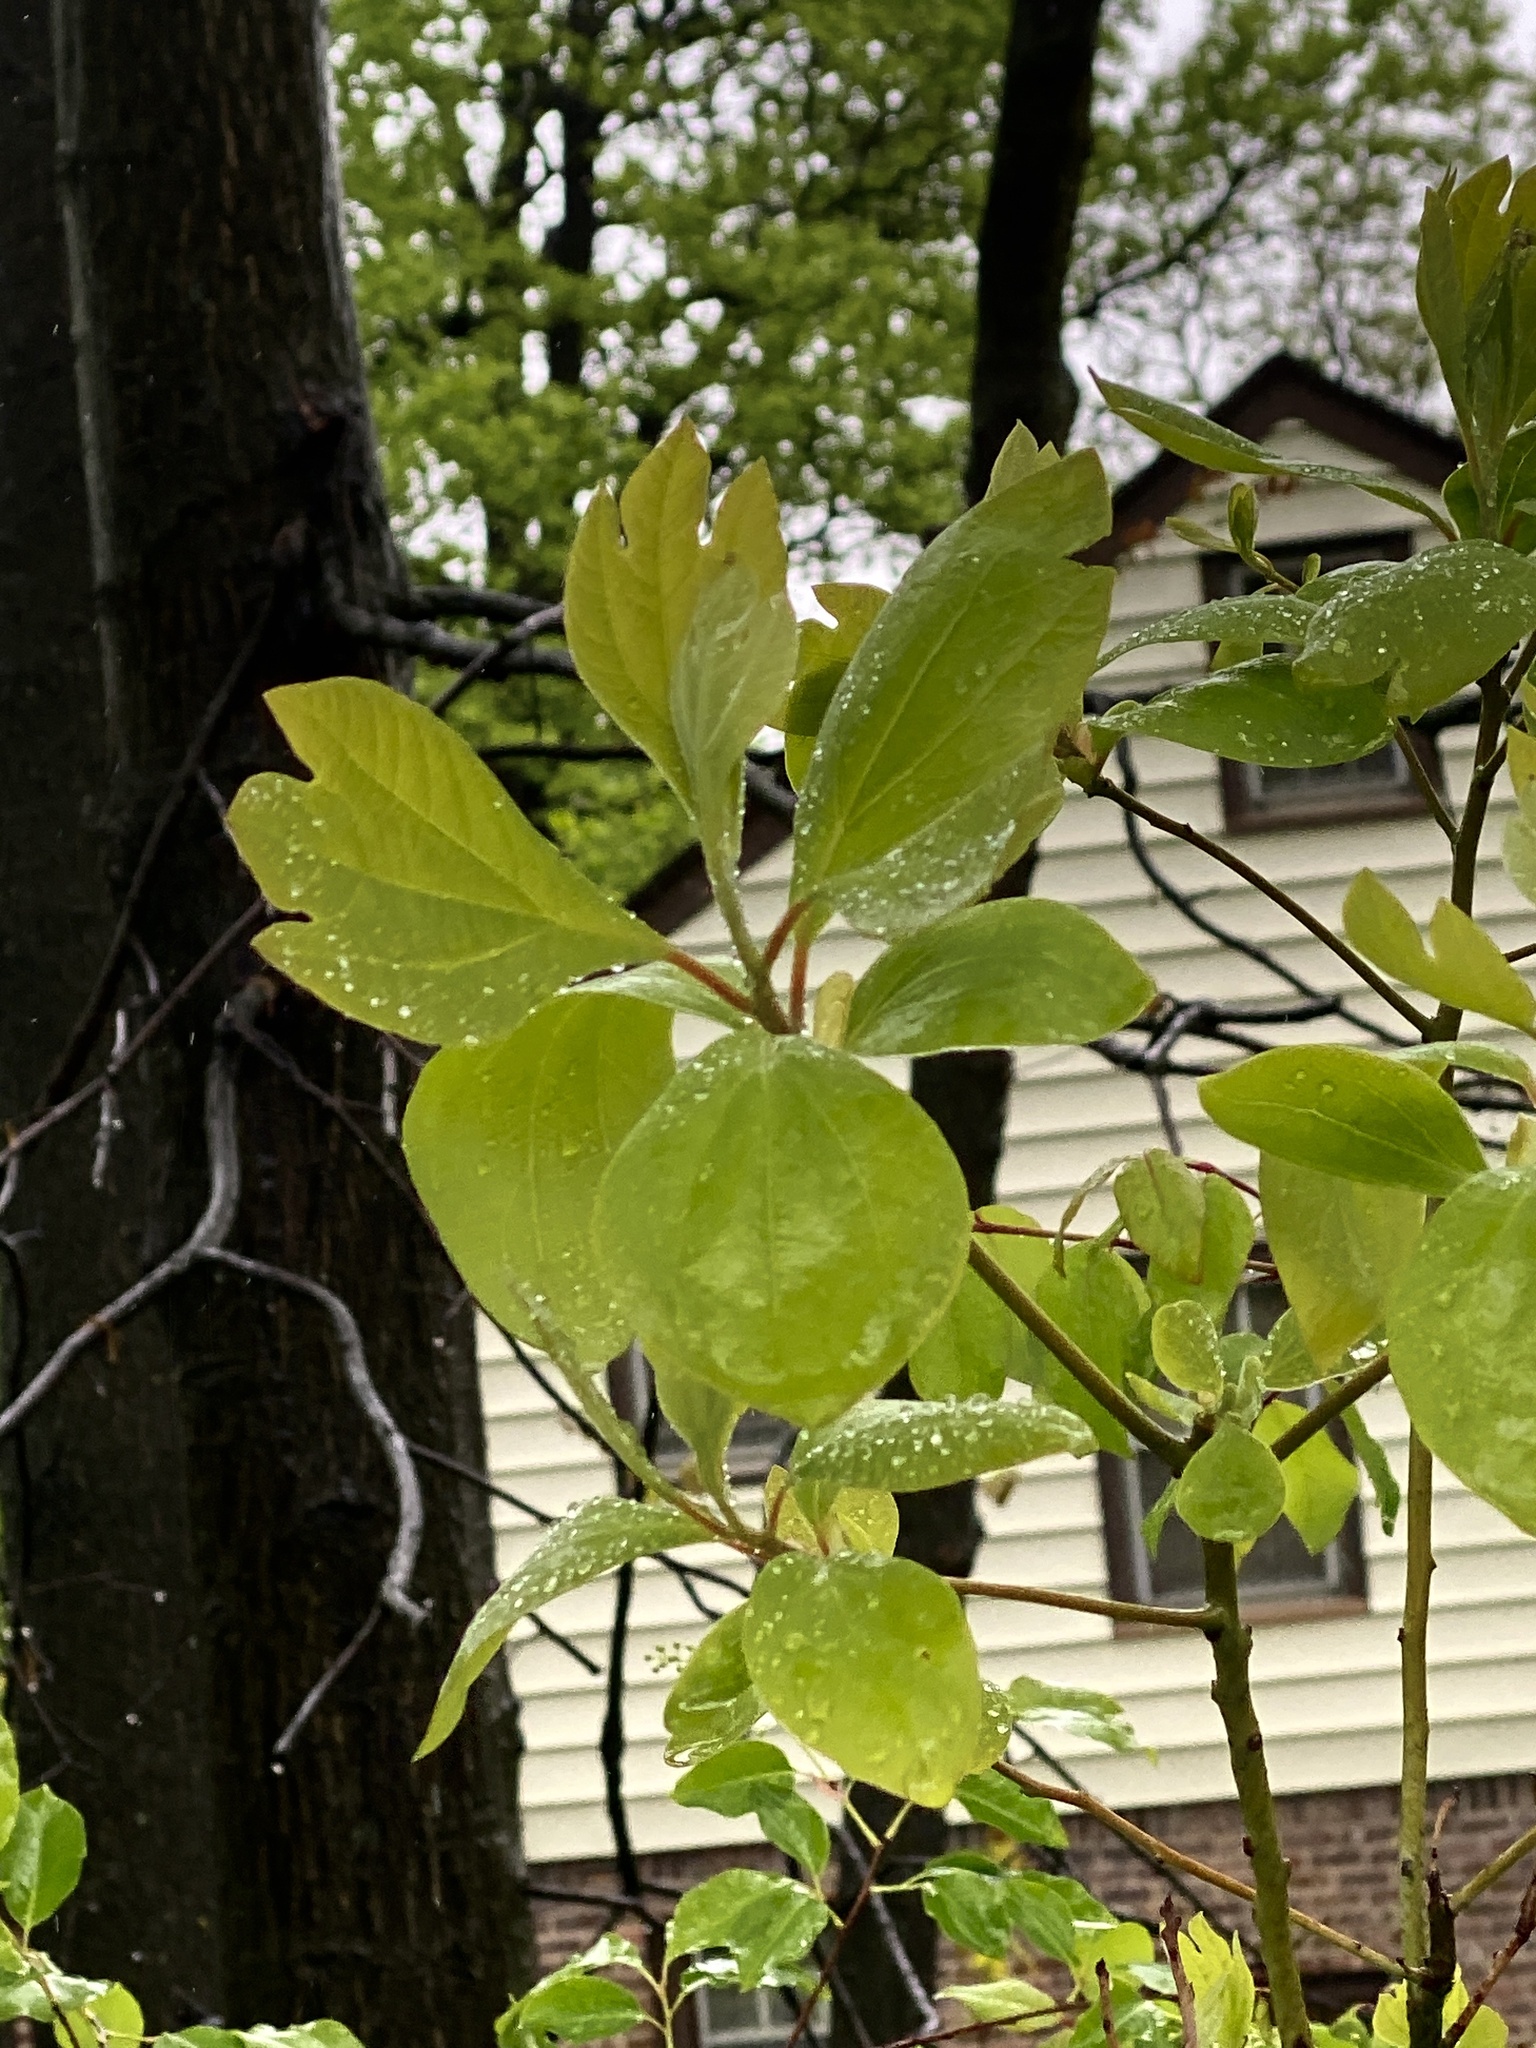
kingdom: Plantae
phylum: Tracheophyta
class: Magnoliopsida
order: Laurales
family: Lauraceae
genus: Sassafras
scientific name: Sassafras albidum
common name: Sassafras
